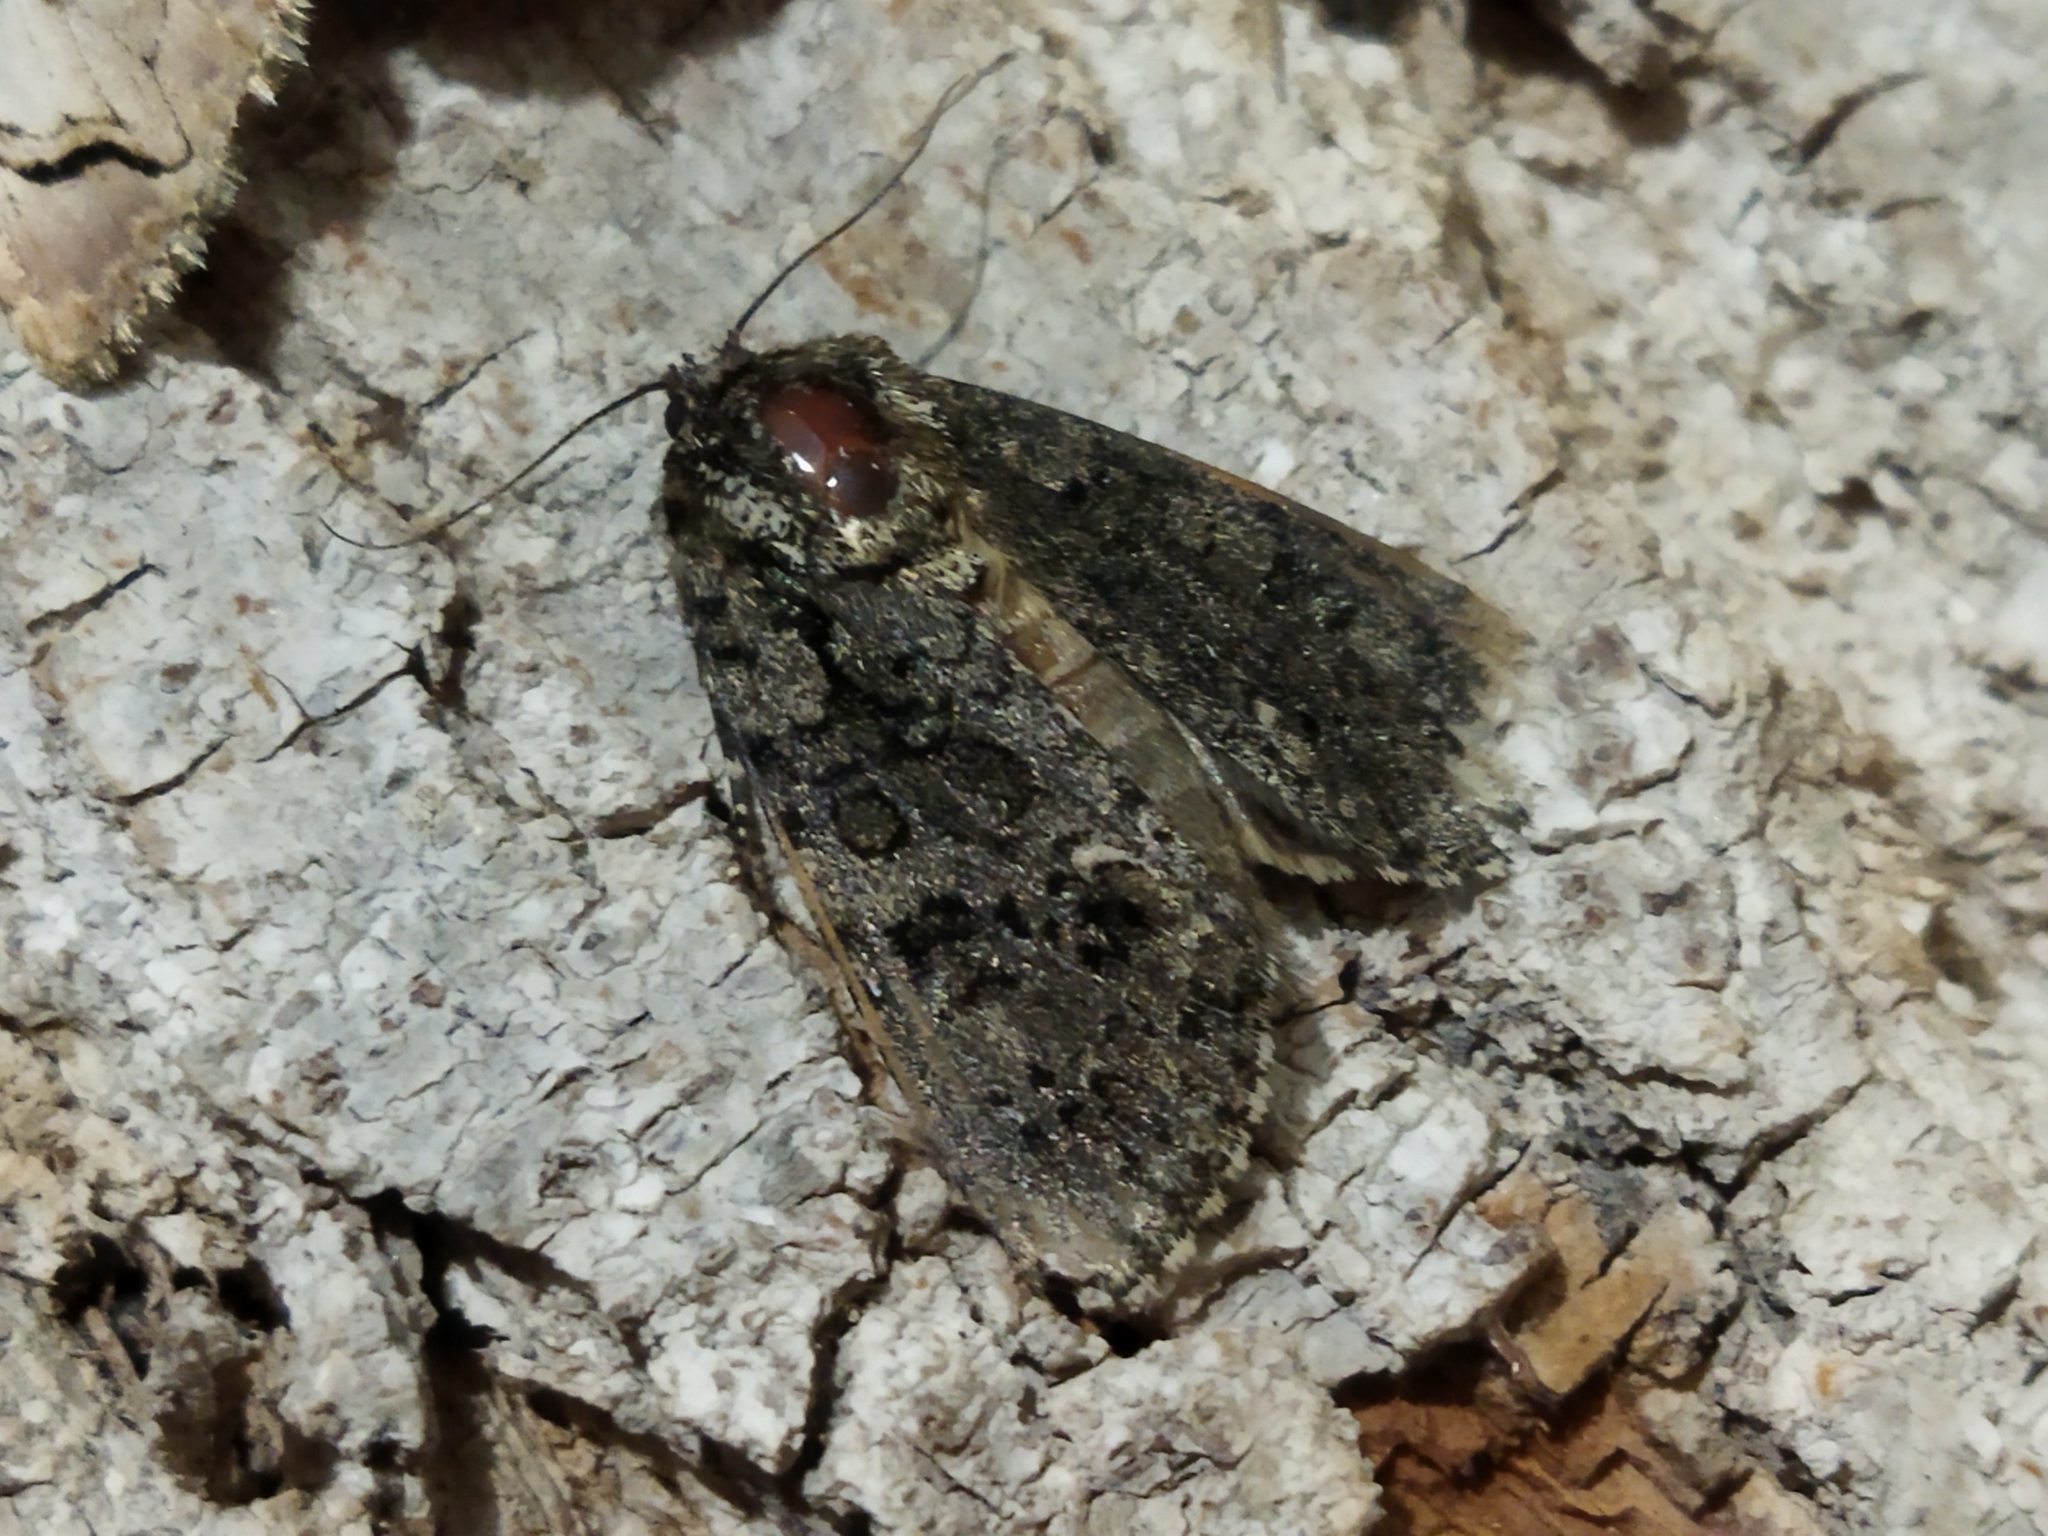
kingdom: Animalia
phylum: Arthropoda
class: Insecta
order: Lepidoptera
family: Noctuidae
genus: Acronicta
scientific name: Acronicta rumicis
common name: Knot grass
